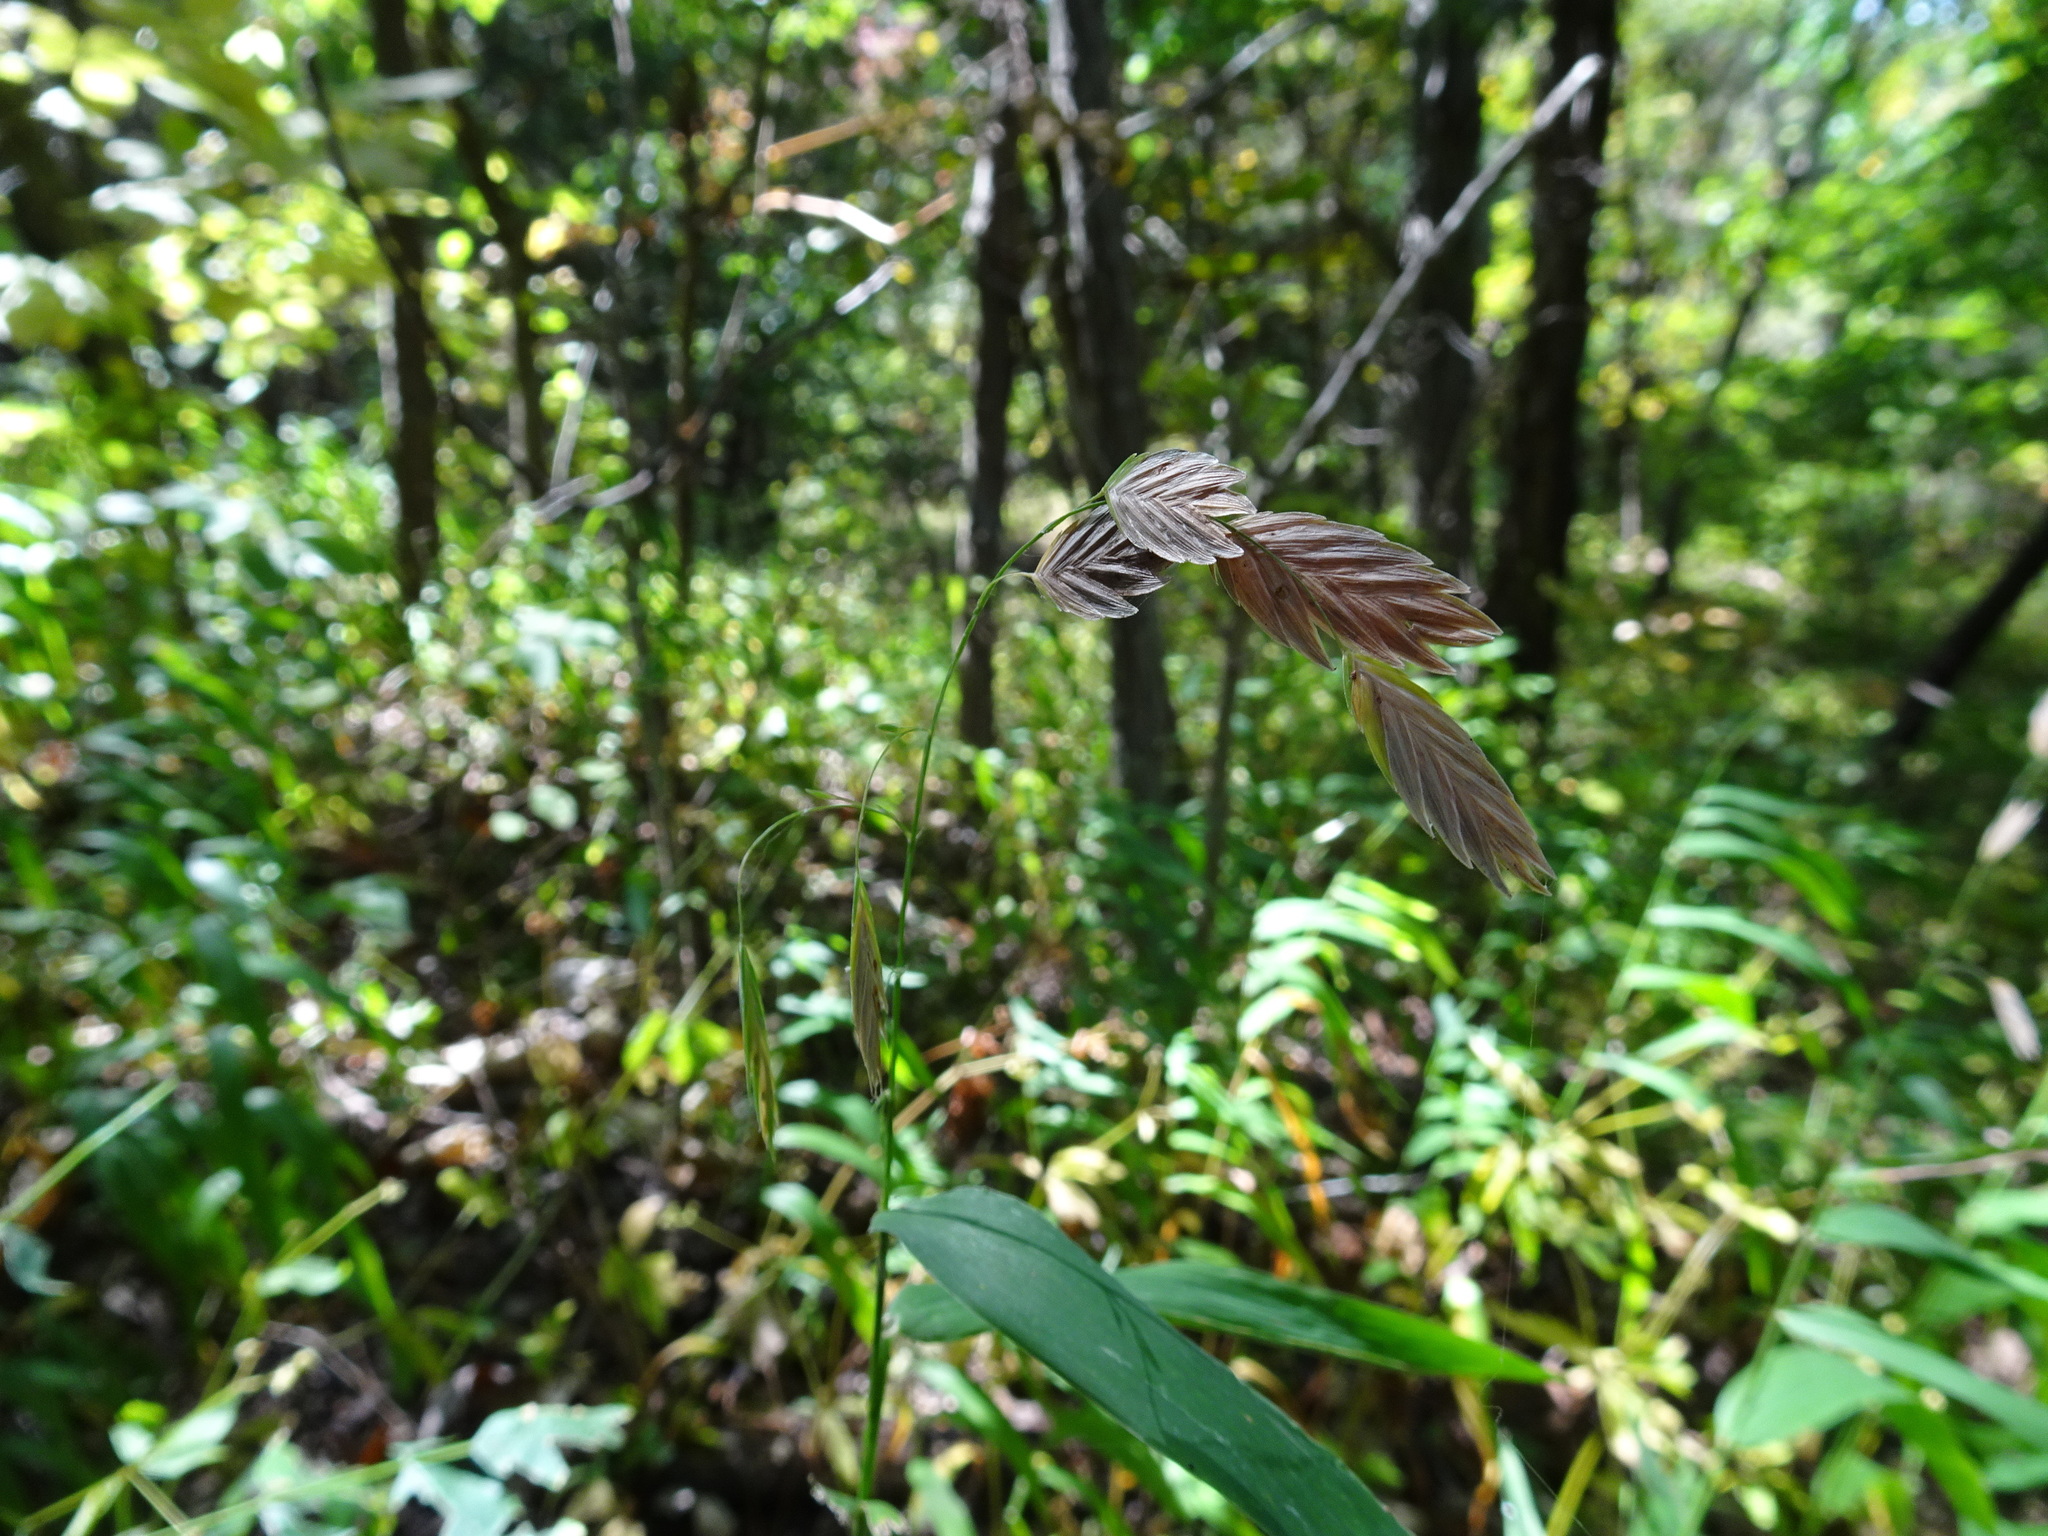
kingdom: Plantae
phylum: Tracheophyta
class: Liliopsida
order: Poales
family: Poaceae
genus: Chasmanthium
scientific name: Chasmanthium latifolium
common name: Broad-leaved chasmanthium
